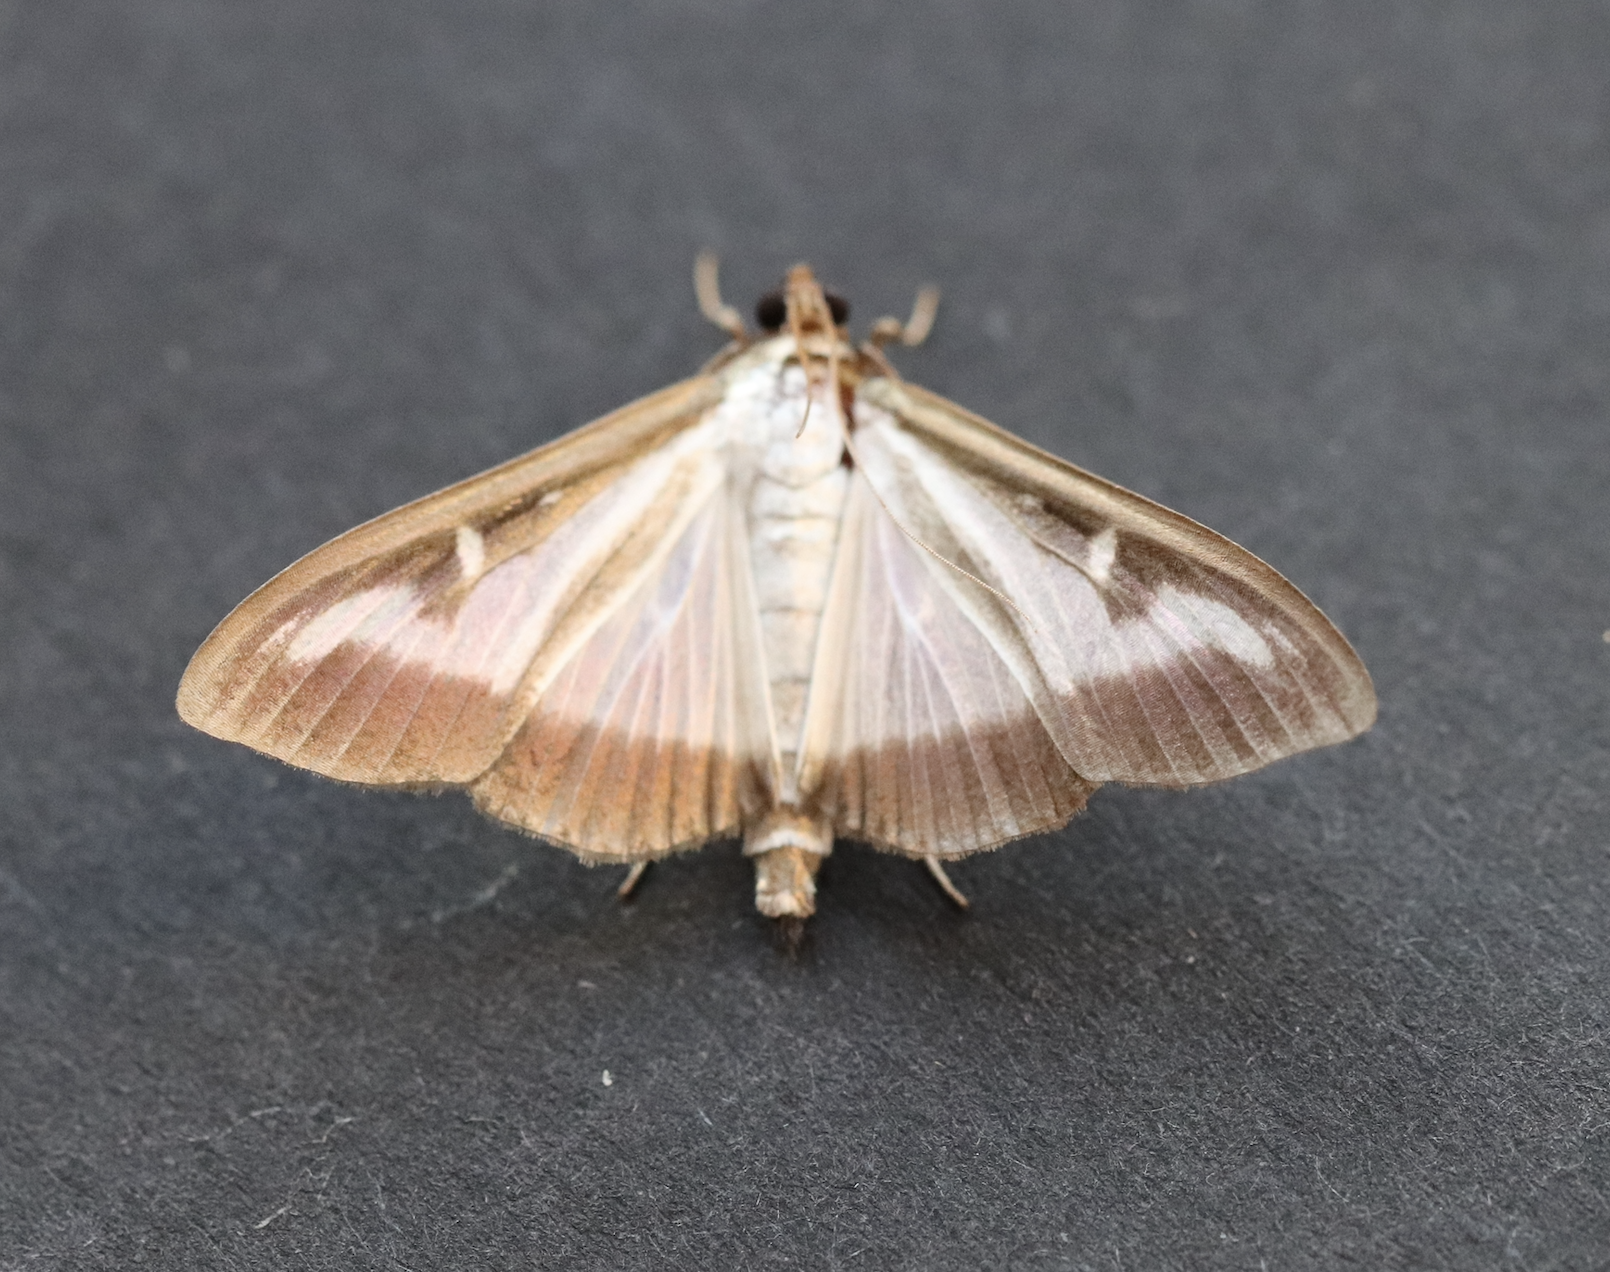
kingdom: Animalia
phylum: Arthropoda
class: Insecta
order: Lepidoptera
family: Crambidae
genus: Cydalima
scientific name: Cydalima perspectalis
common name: Box tree moth
